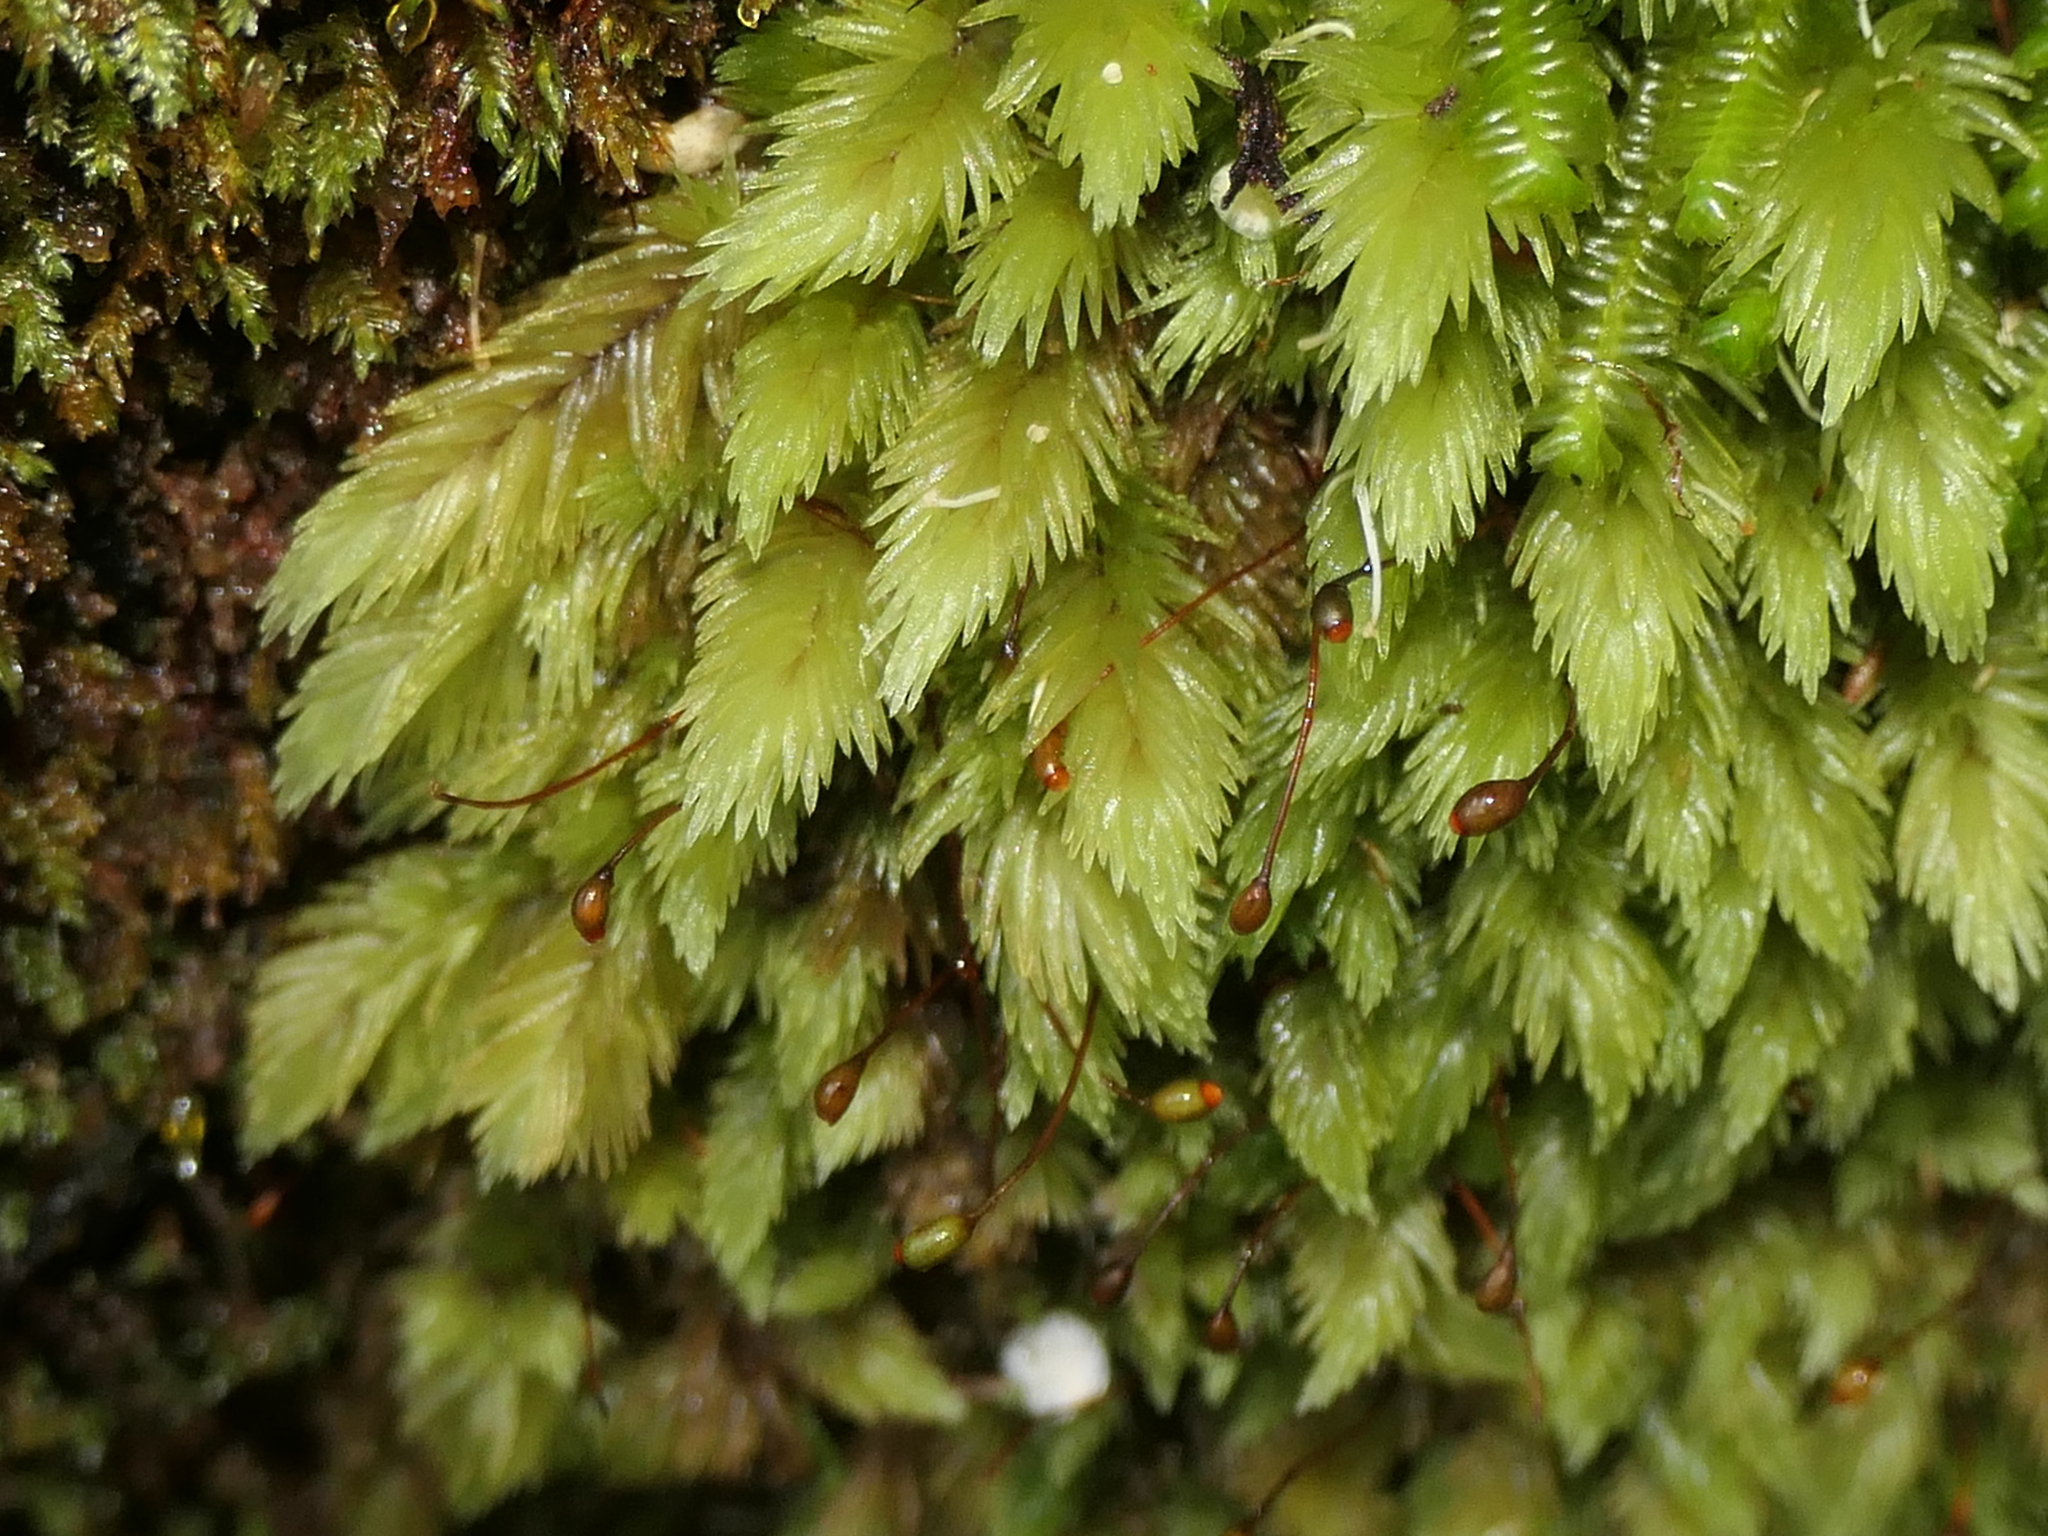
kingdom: Plantae
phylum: Bryophyta
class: Bryopsida
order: Dicranales
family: Leucobryaceae
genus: Leucobryum
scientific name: Leucobryum javense
